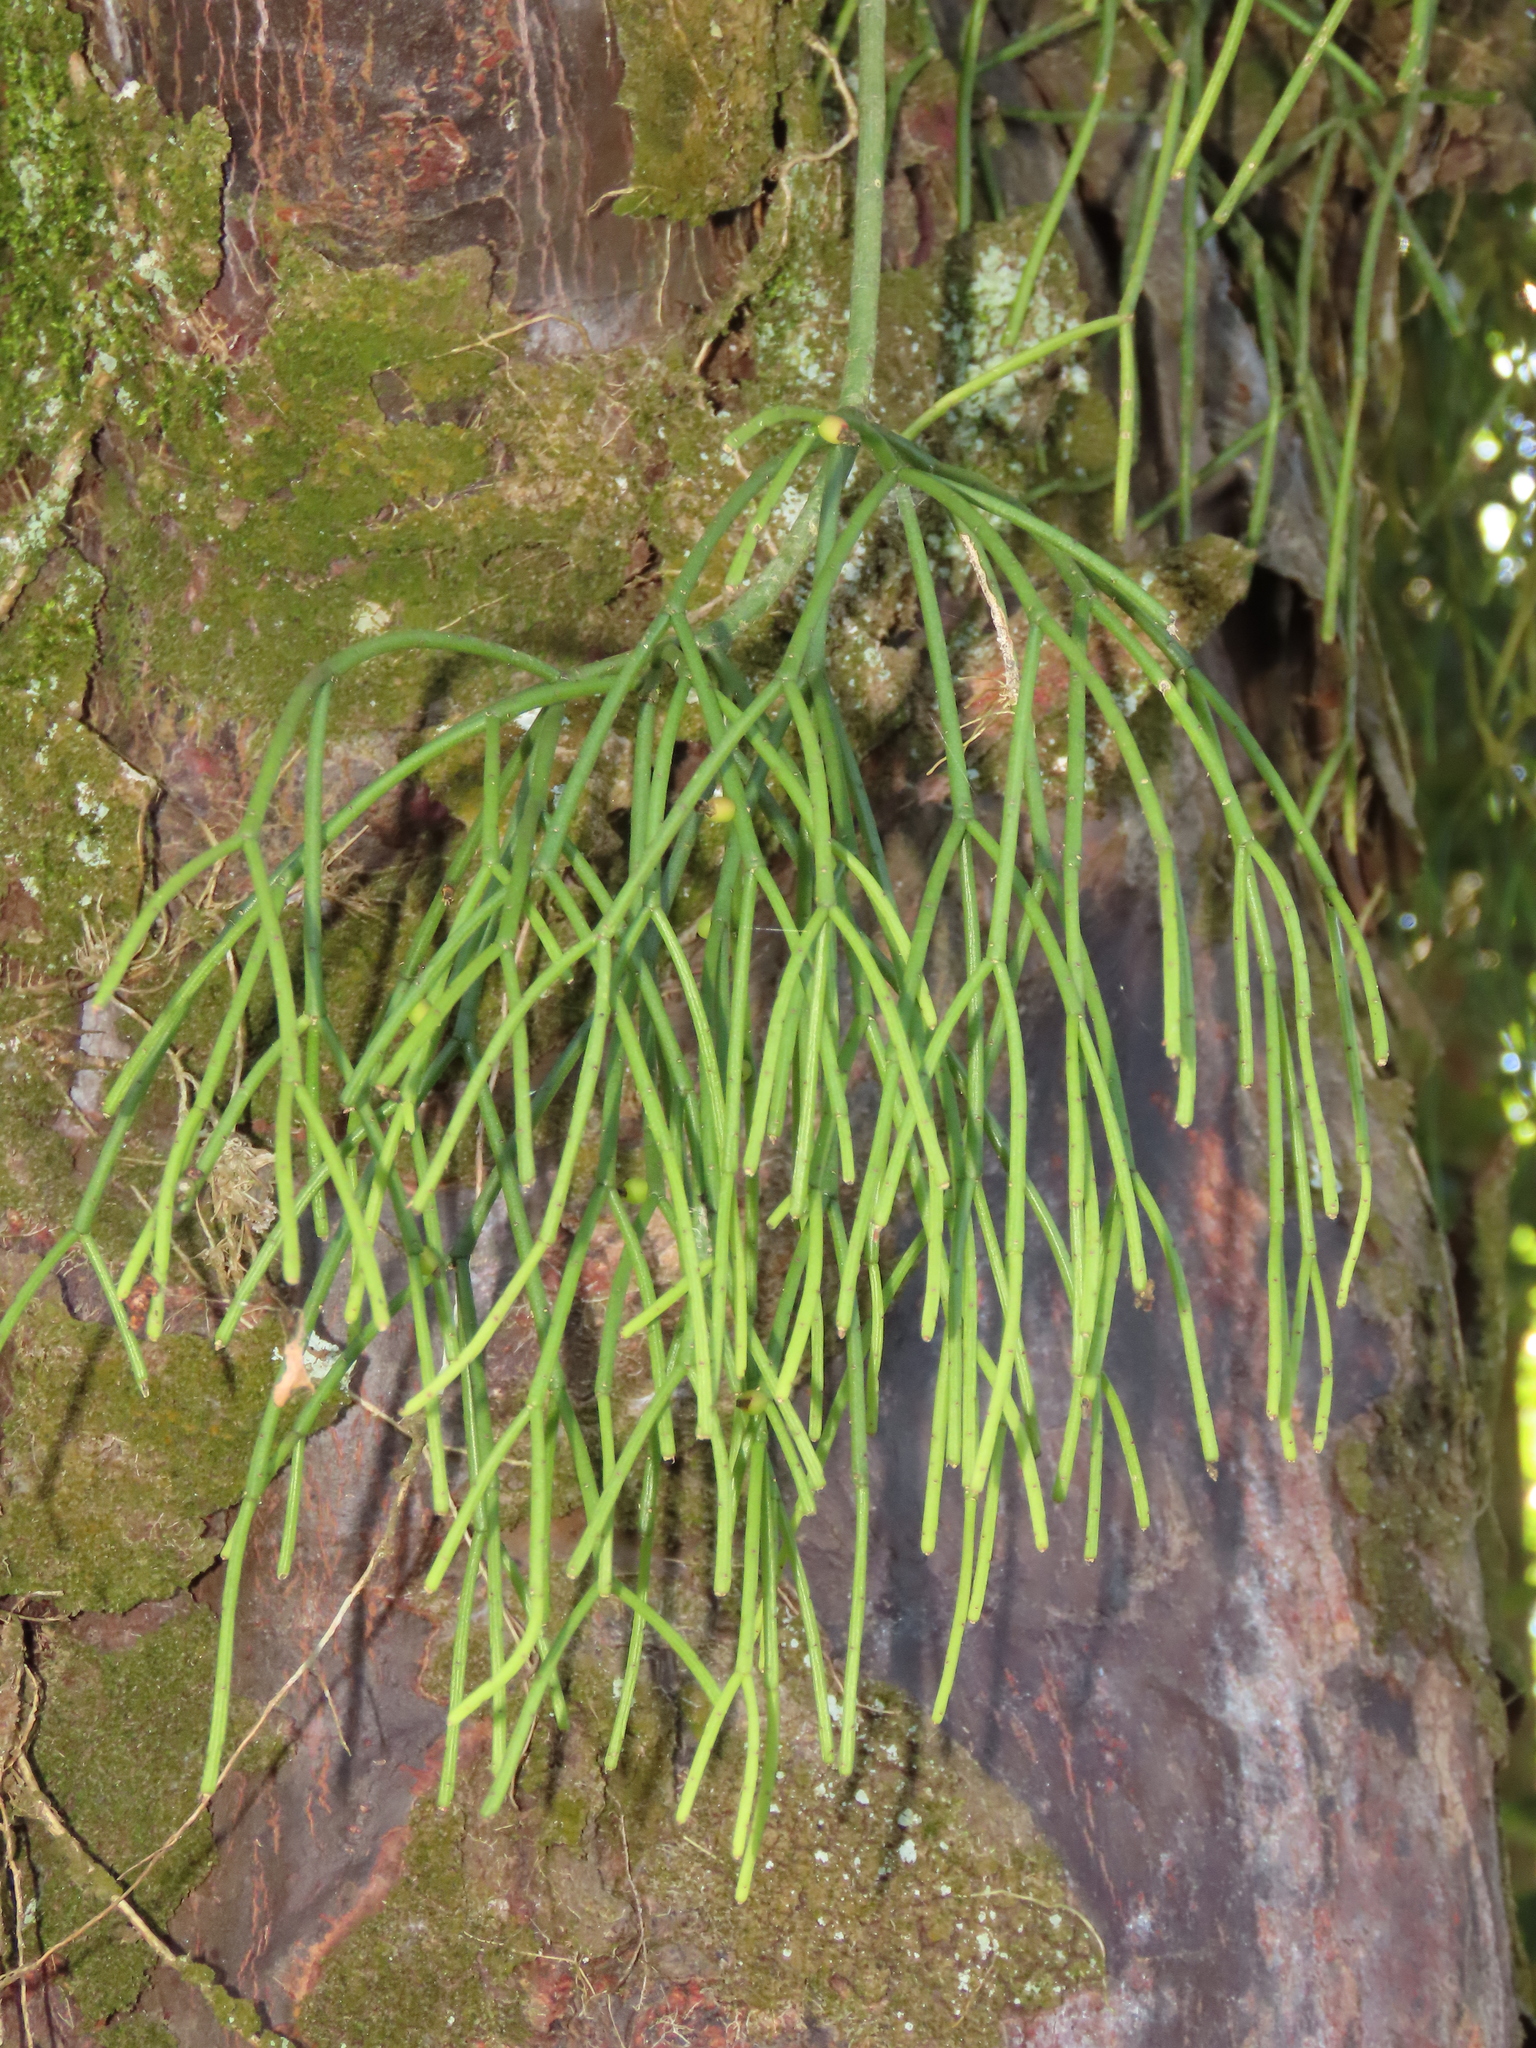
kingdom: Plantae
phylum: Tracheophyta
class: Magnoliopsida
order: Caryophyllales
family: Cactaceae
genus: Rhipsalis
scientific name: Rhipsalis baccifera
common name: Mistletoe cactus
